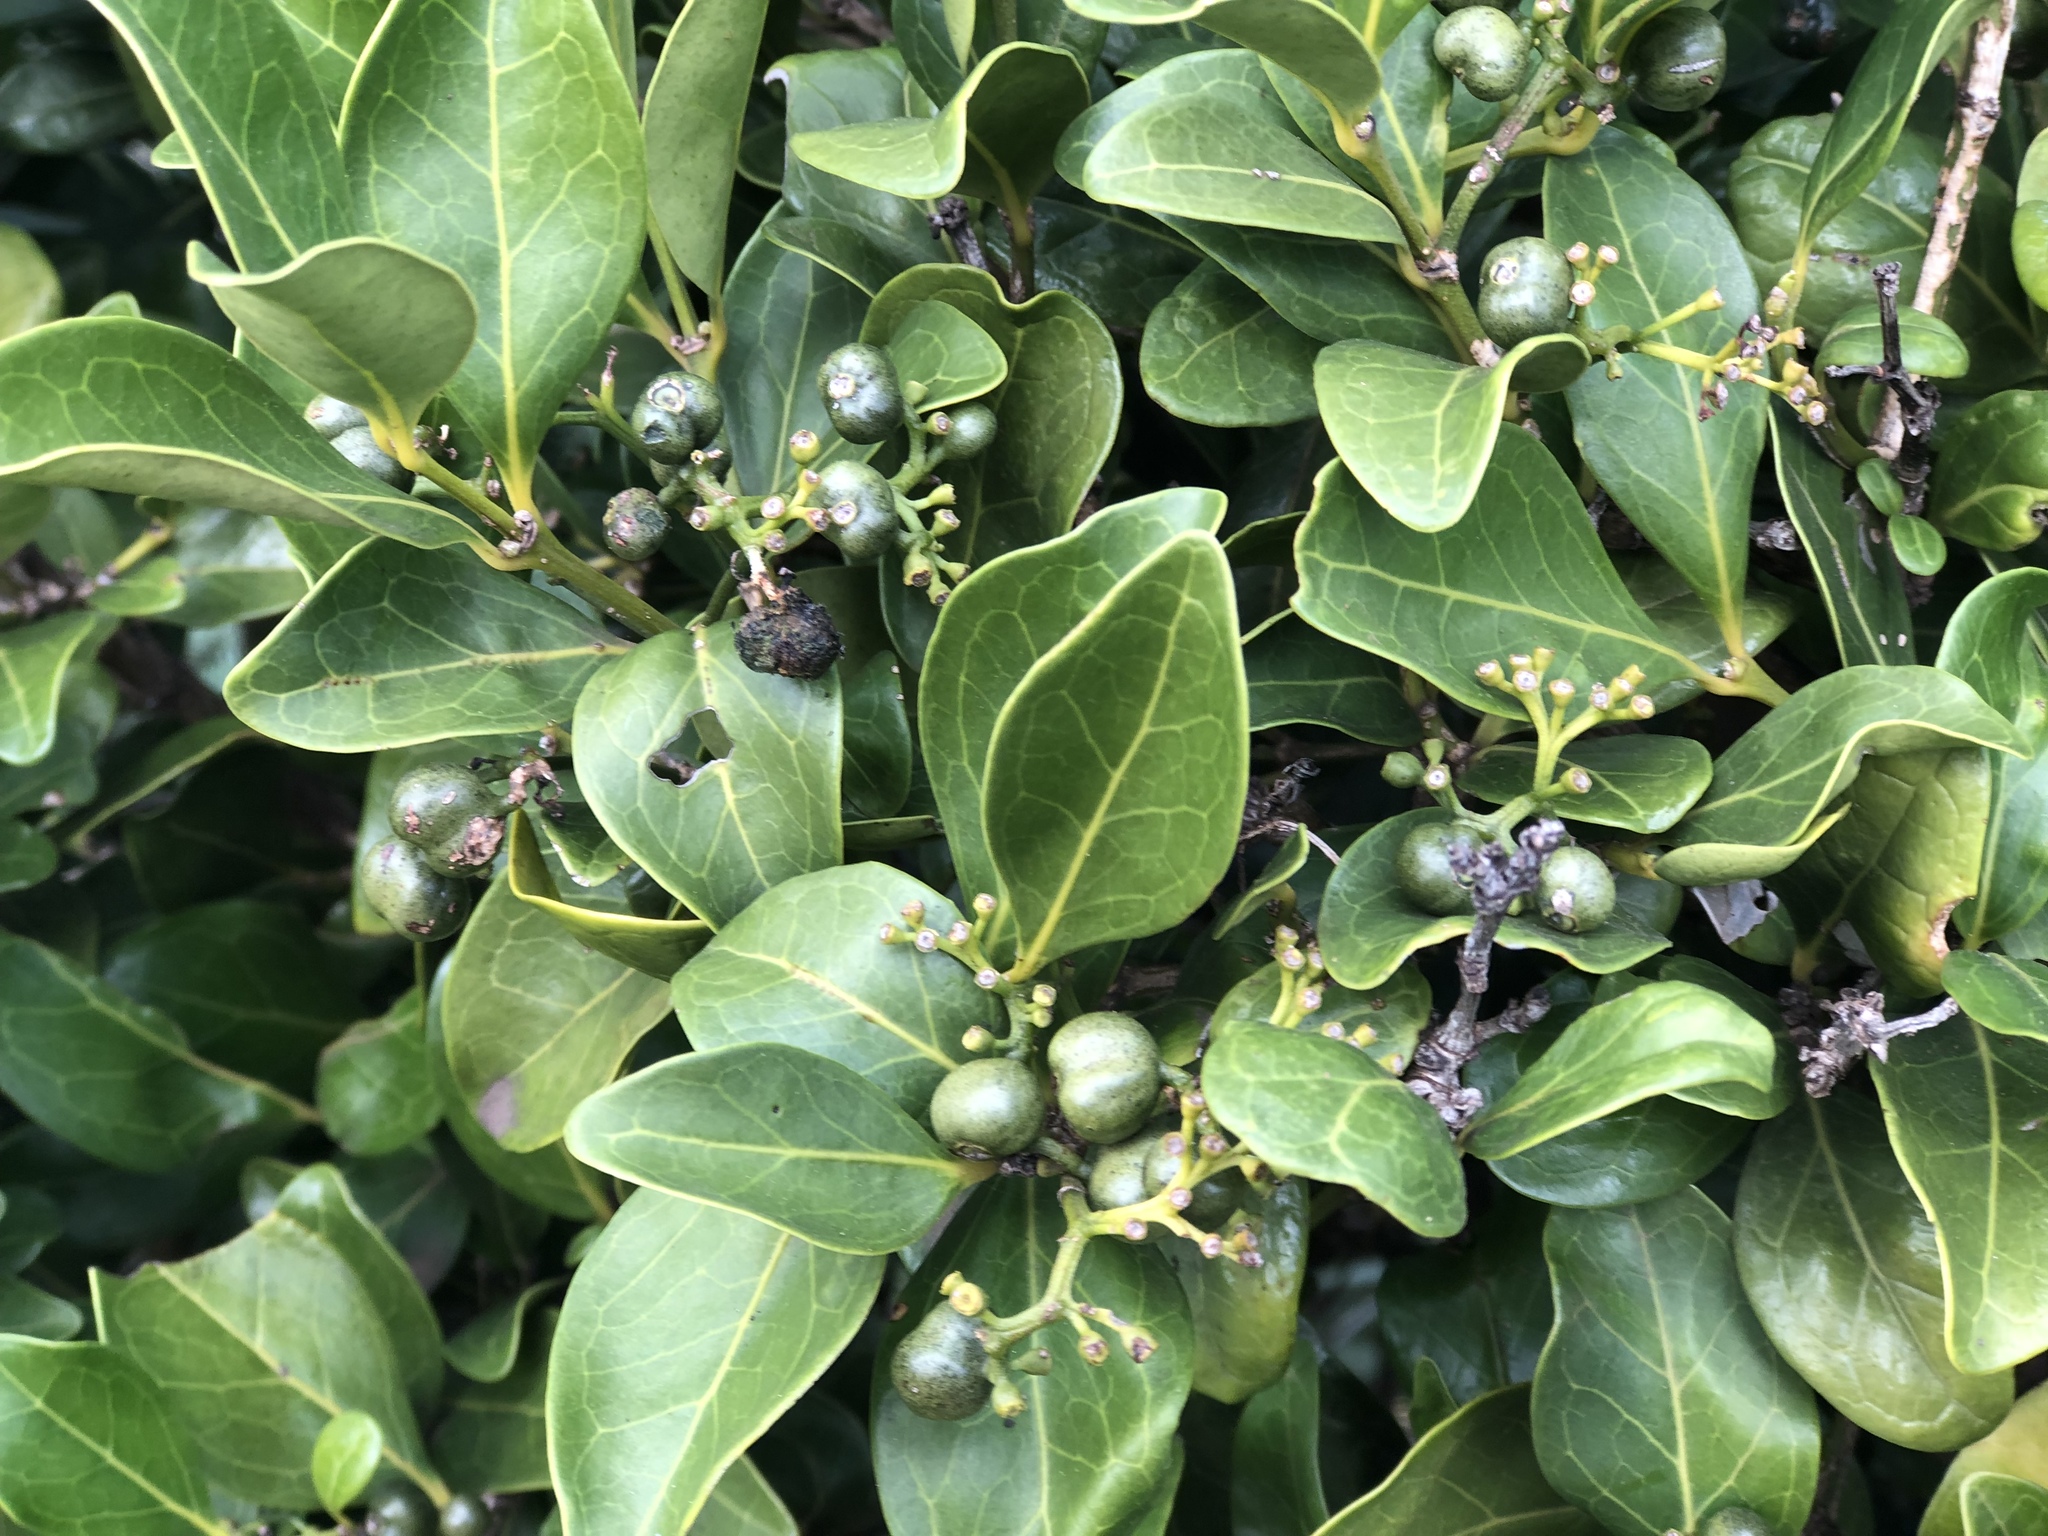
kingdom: Plantae
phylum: Tracheophyta
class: Magnoliopsida
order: Gentianales
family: Rubiaceae
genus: Psydrax
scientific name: Psydrax odoratus
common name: Alahe'e
